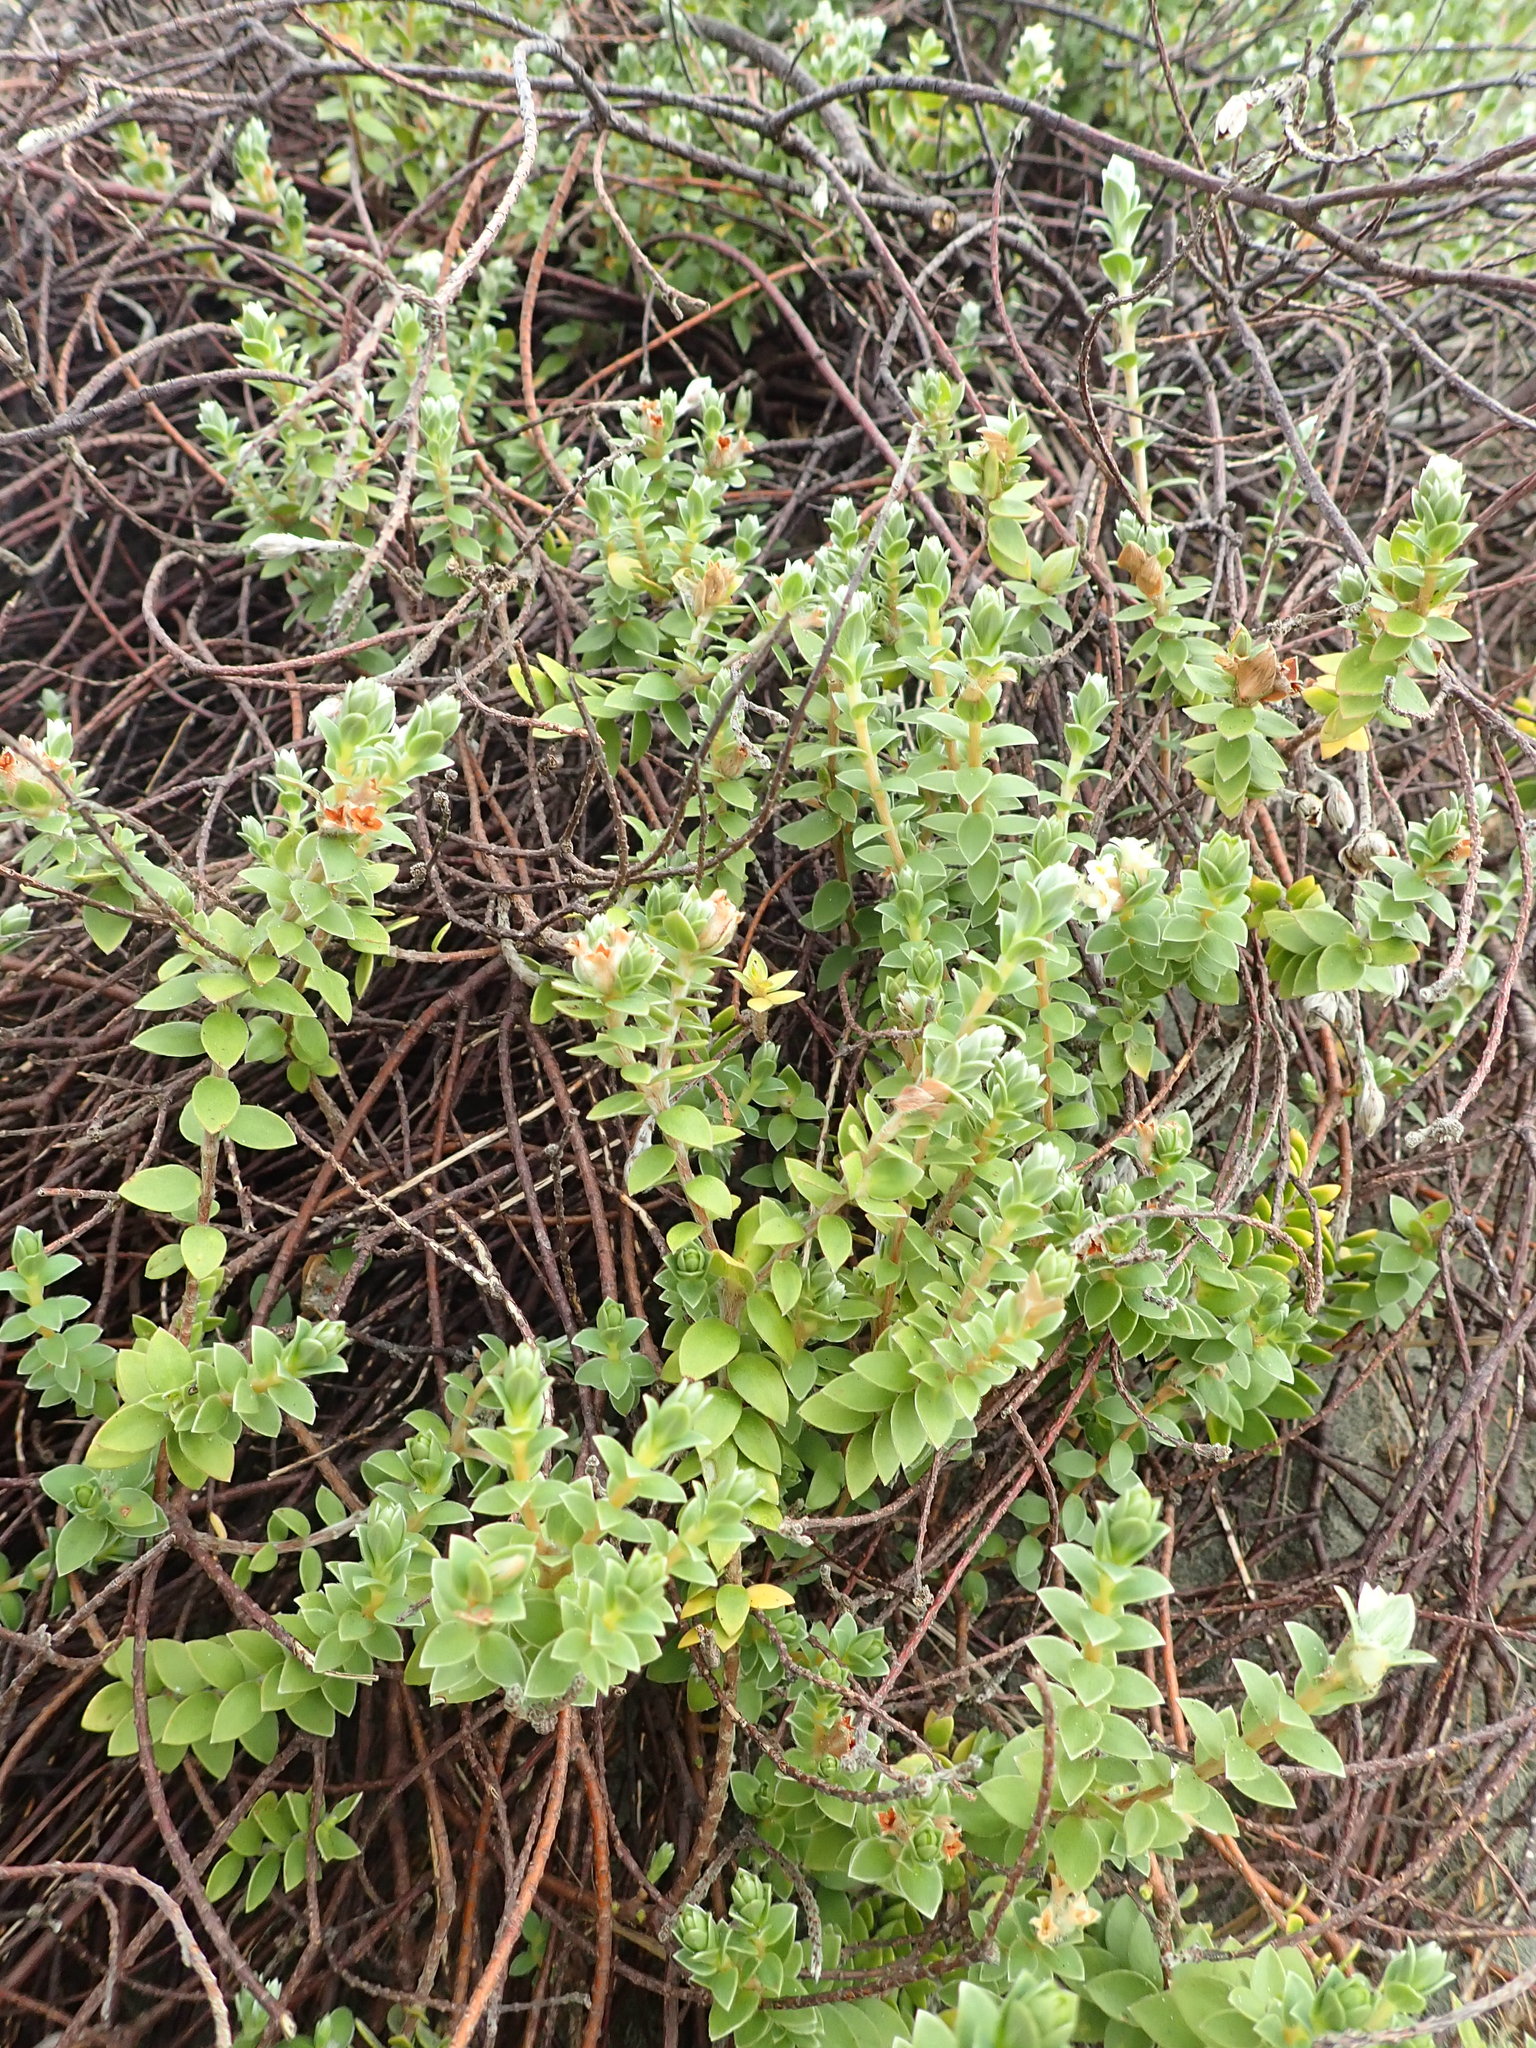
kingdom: Plantae
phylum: Tracheophyta
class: Magnoliopsida
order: Malvales
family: Thymelaeaceae
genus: Pimelea
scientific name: Pimelea villosa
